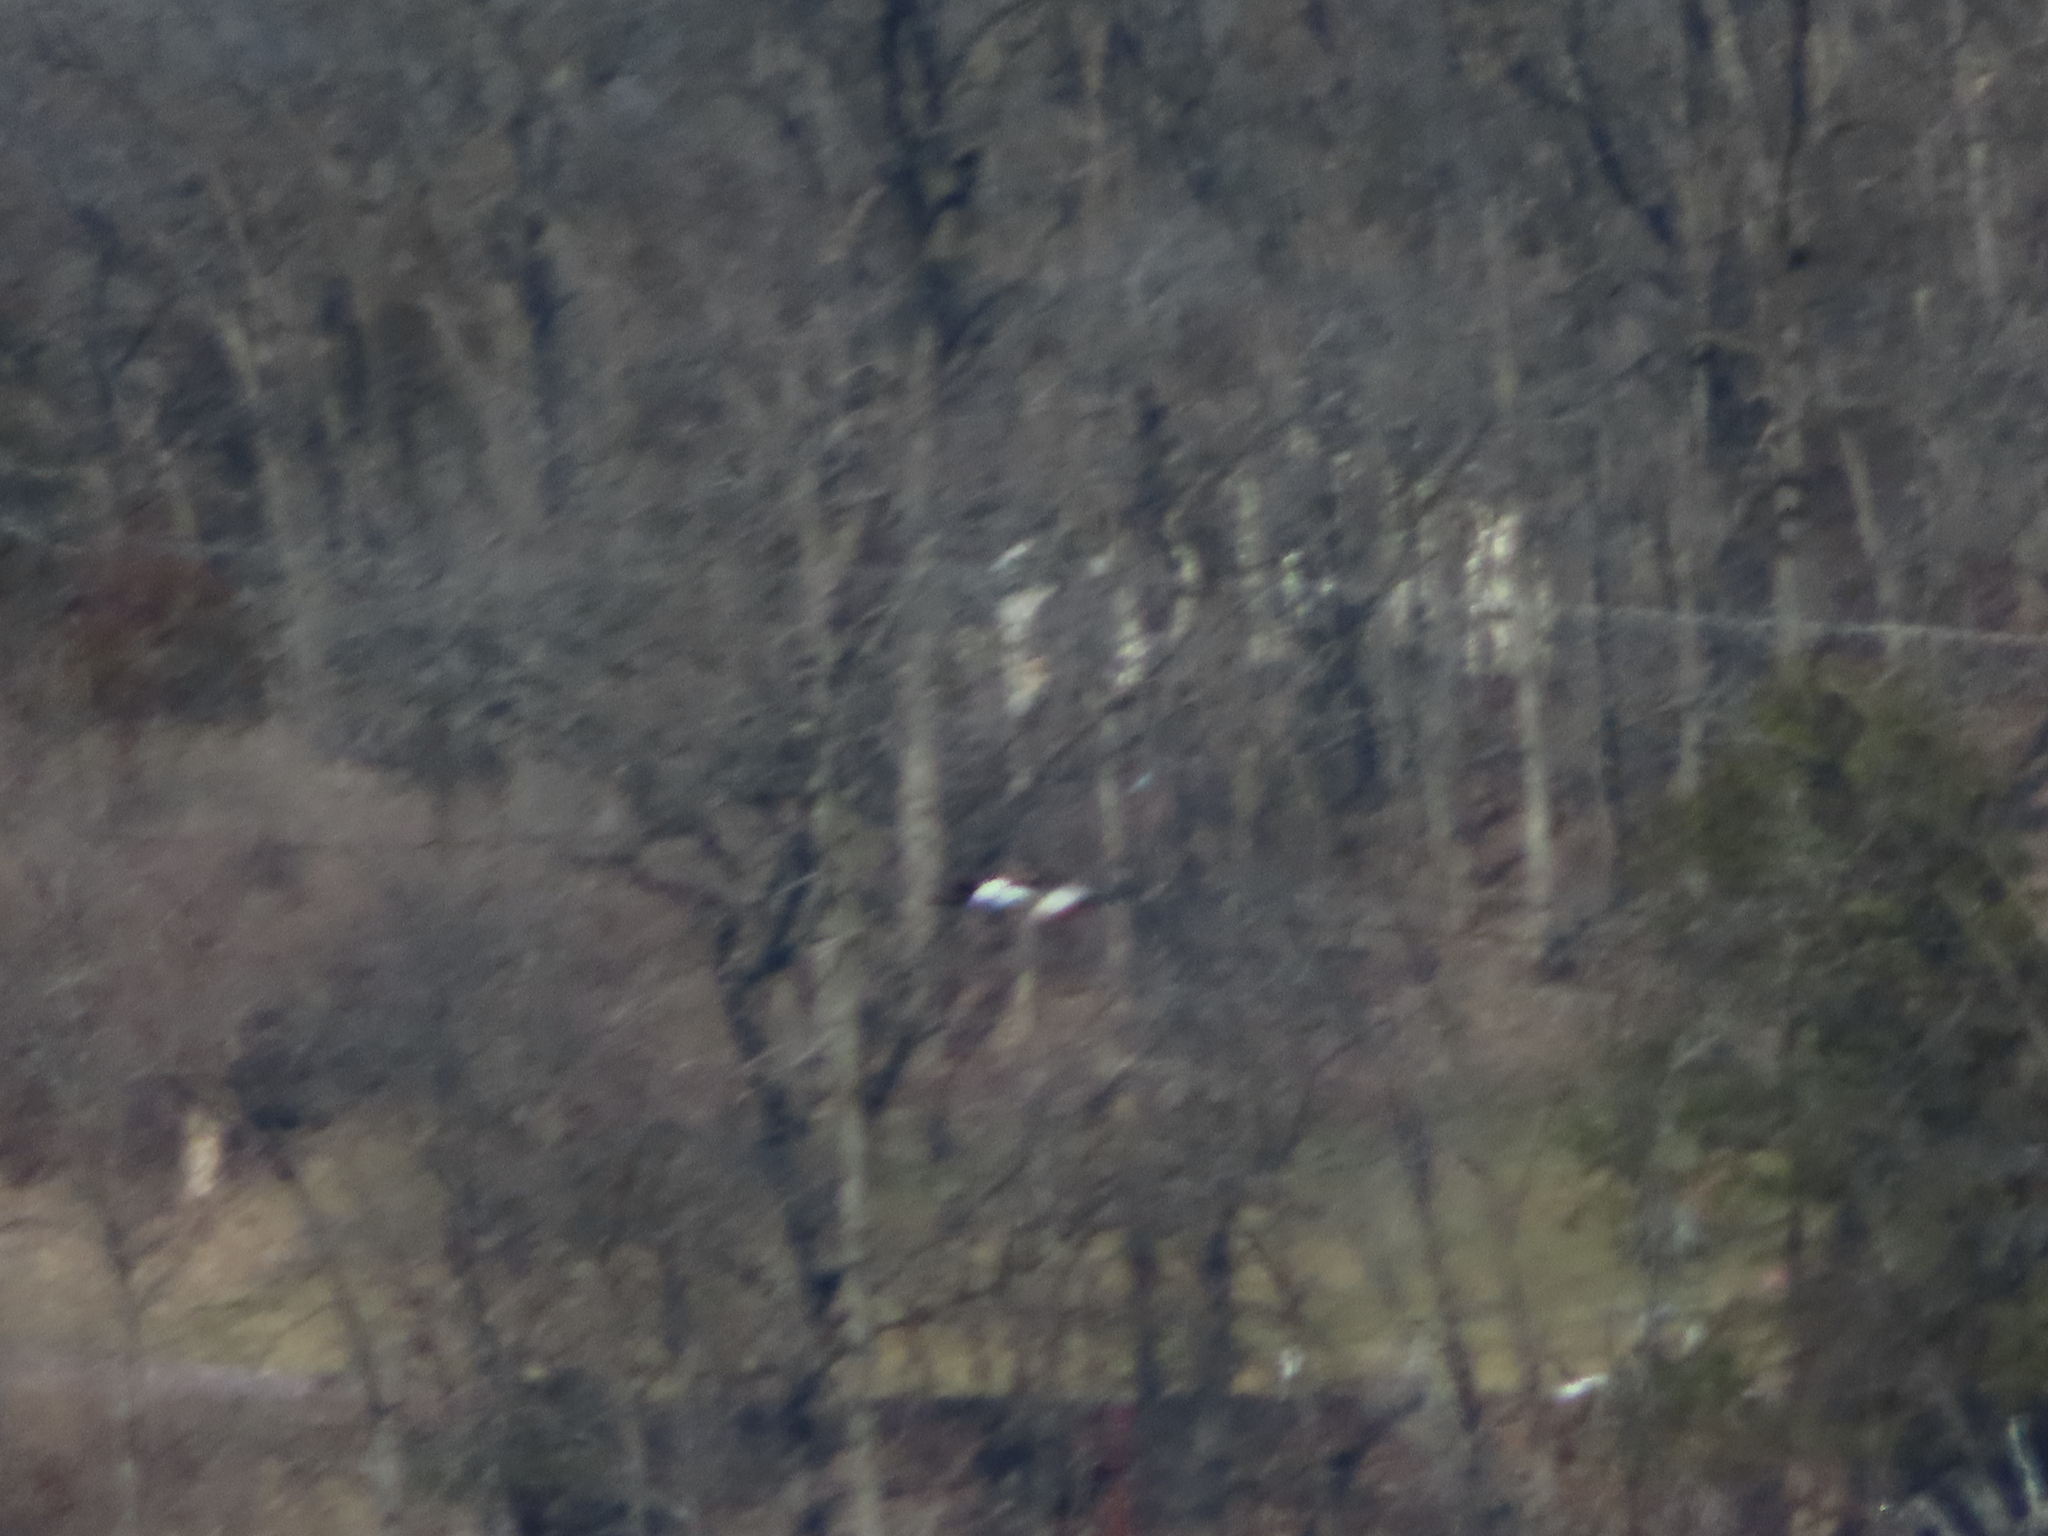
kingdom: Animalia
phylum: Chordata
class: Aves
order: Anseriformes
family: Anatidae
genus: Spatula
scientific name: Spatula clypeata
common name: Northern shoveler
